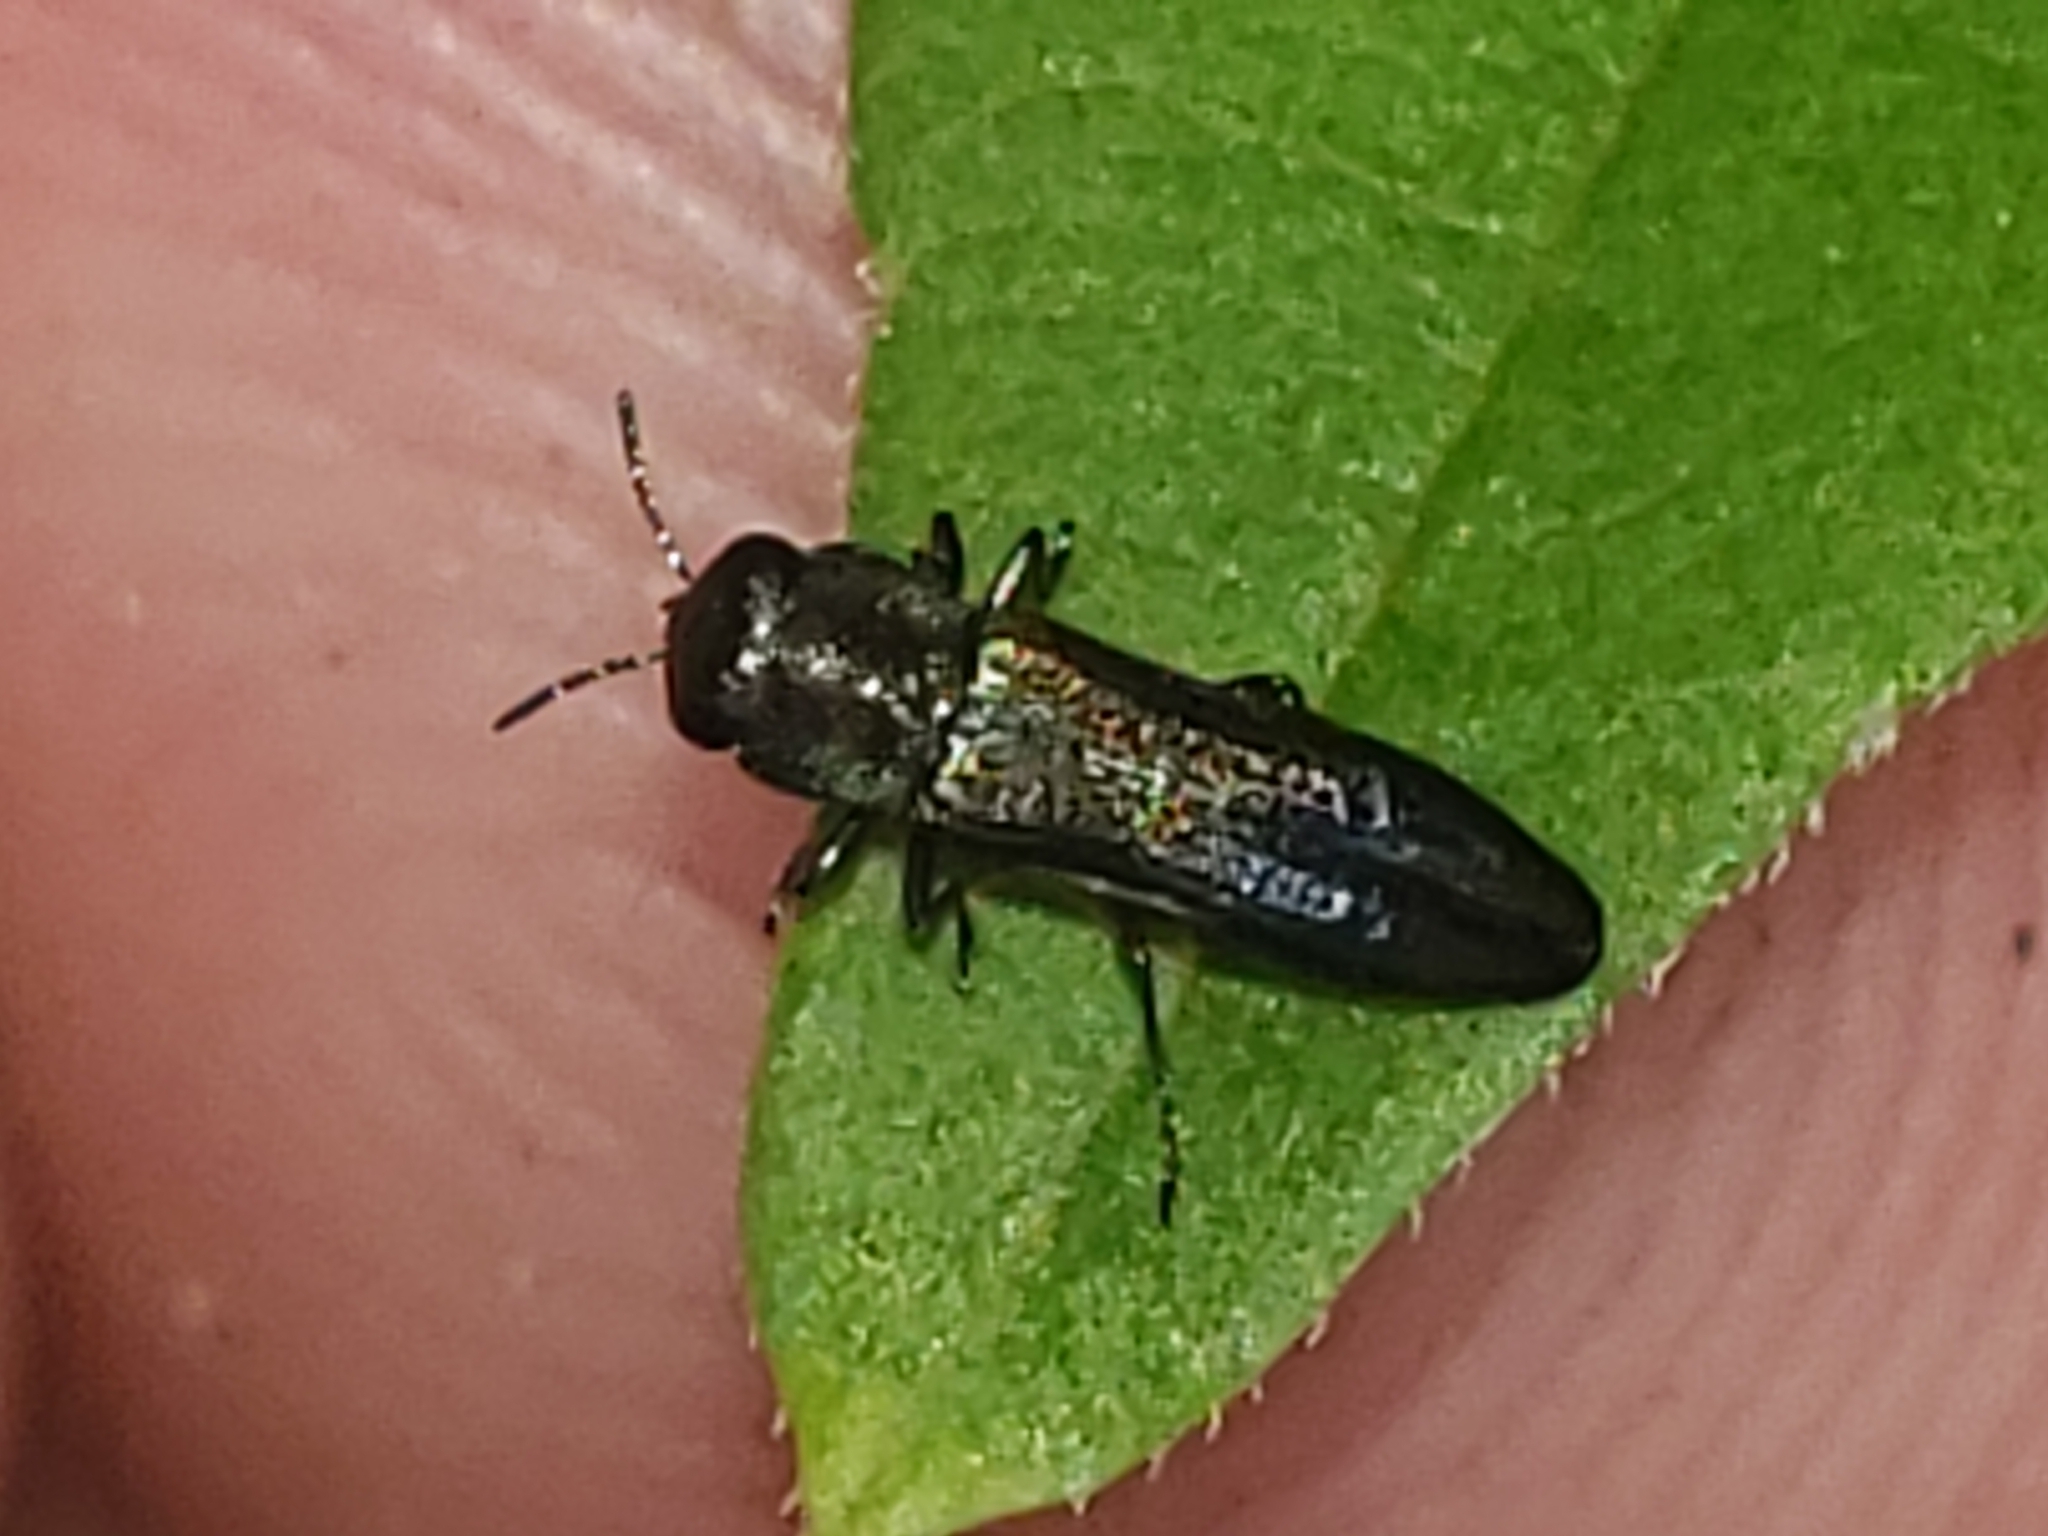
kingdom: Animalia
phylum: Arthropoda
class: Insecta
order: Coleoptera
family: Buprestidae
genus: Agrilaxia
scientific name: Agrilaxia flavimana
